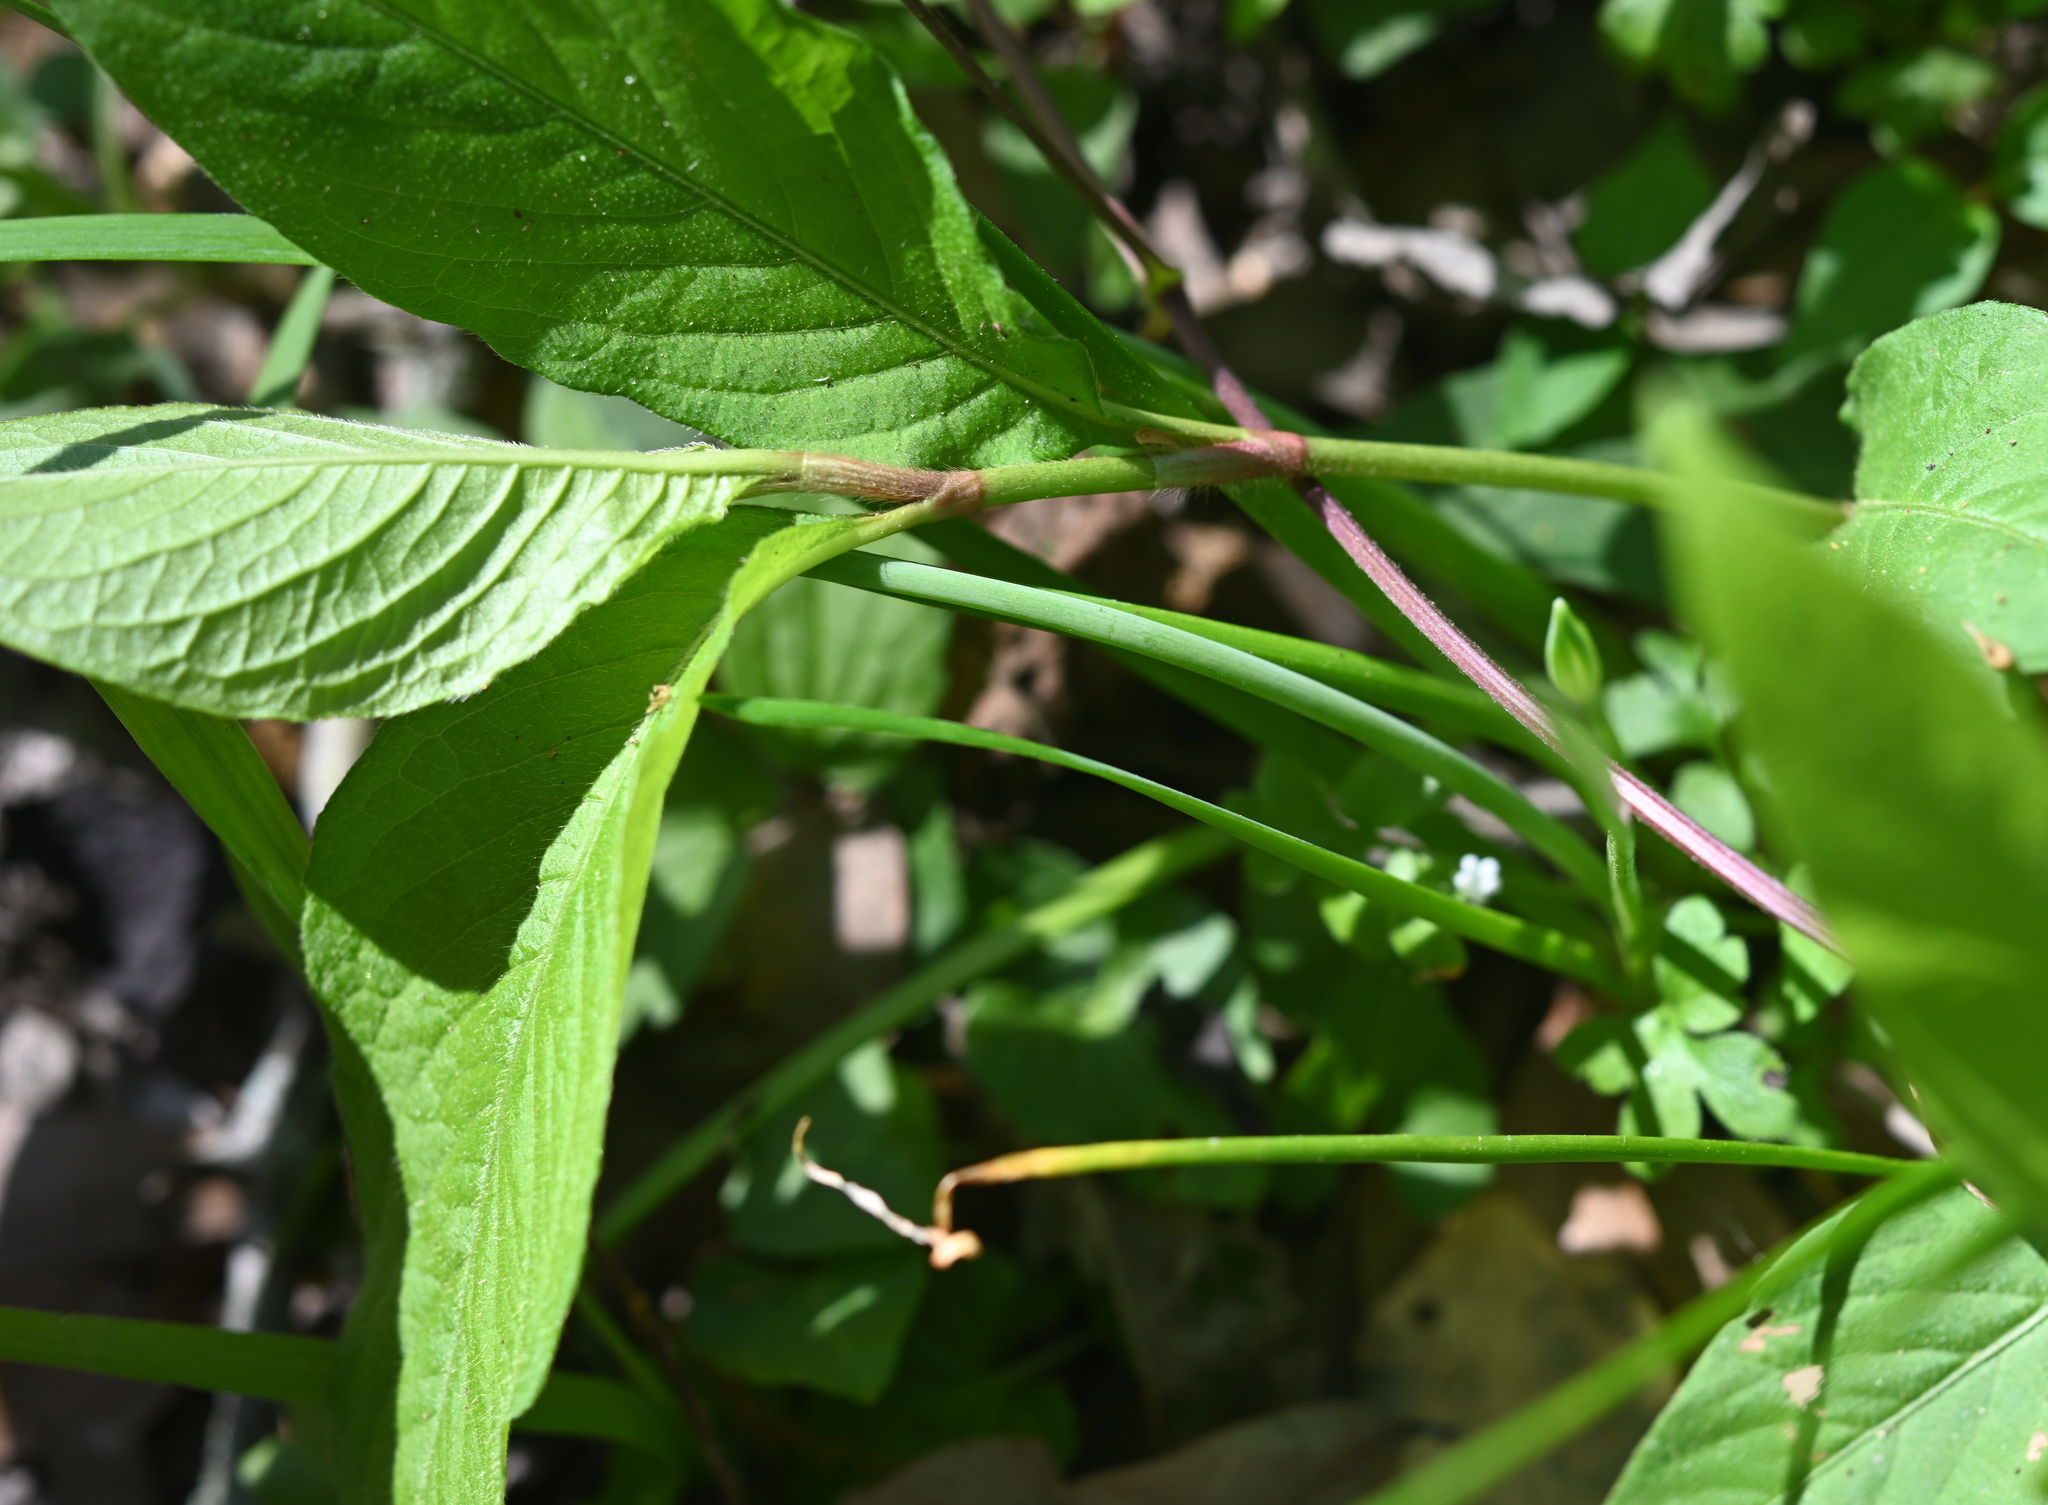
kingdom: Plantae
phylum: Tracheophyta
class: Magnoliopsida
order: Caryophyllales
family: Polygonaceae
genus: Persicaria
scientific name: Persicaria virginiana
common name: Jumpseed
